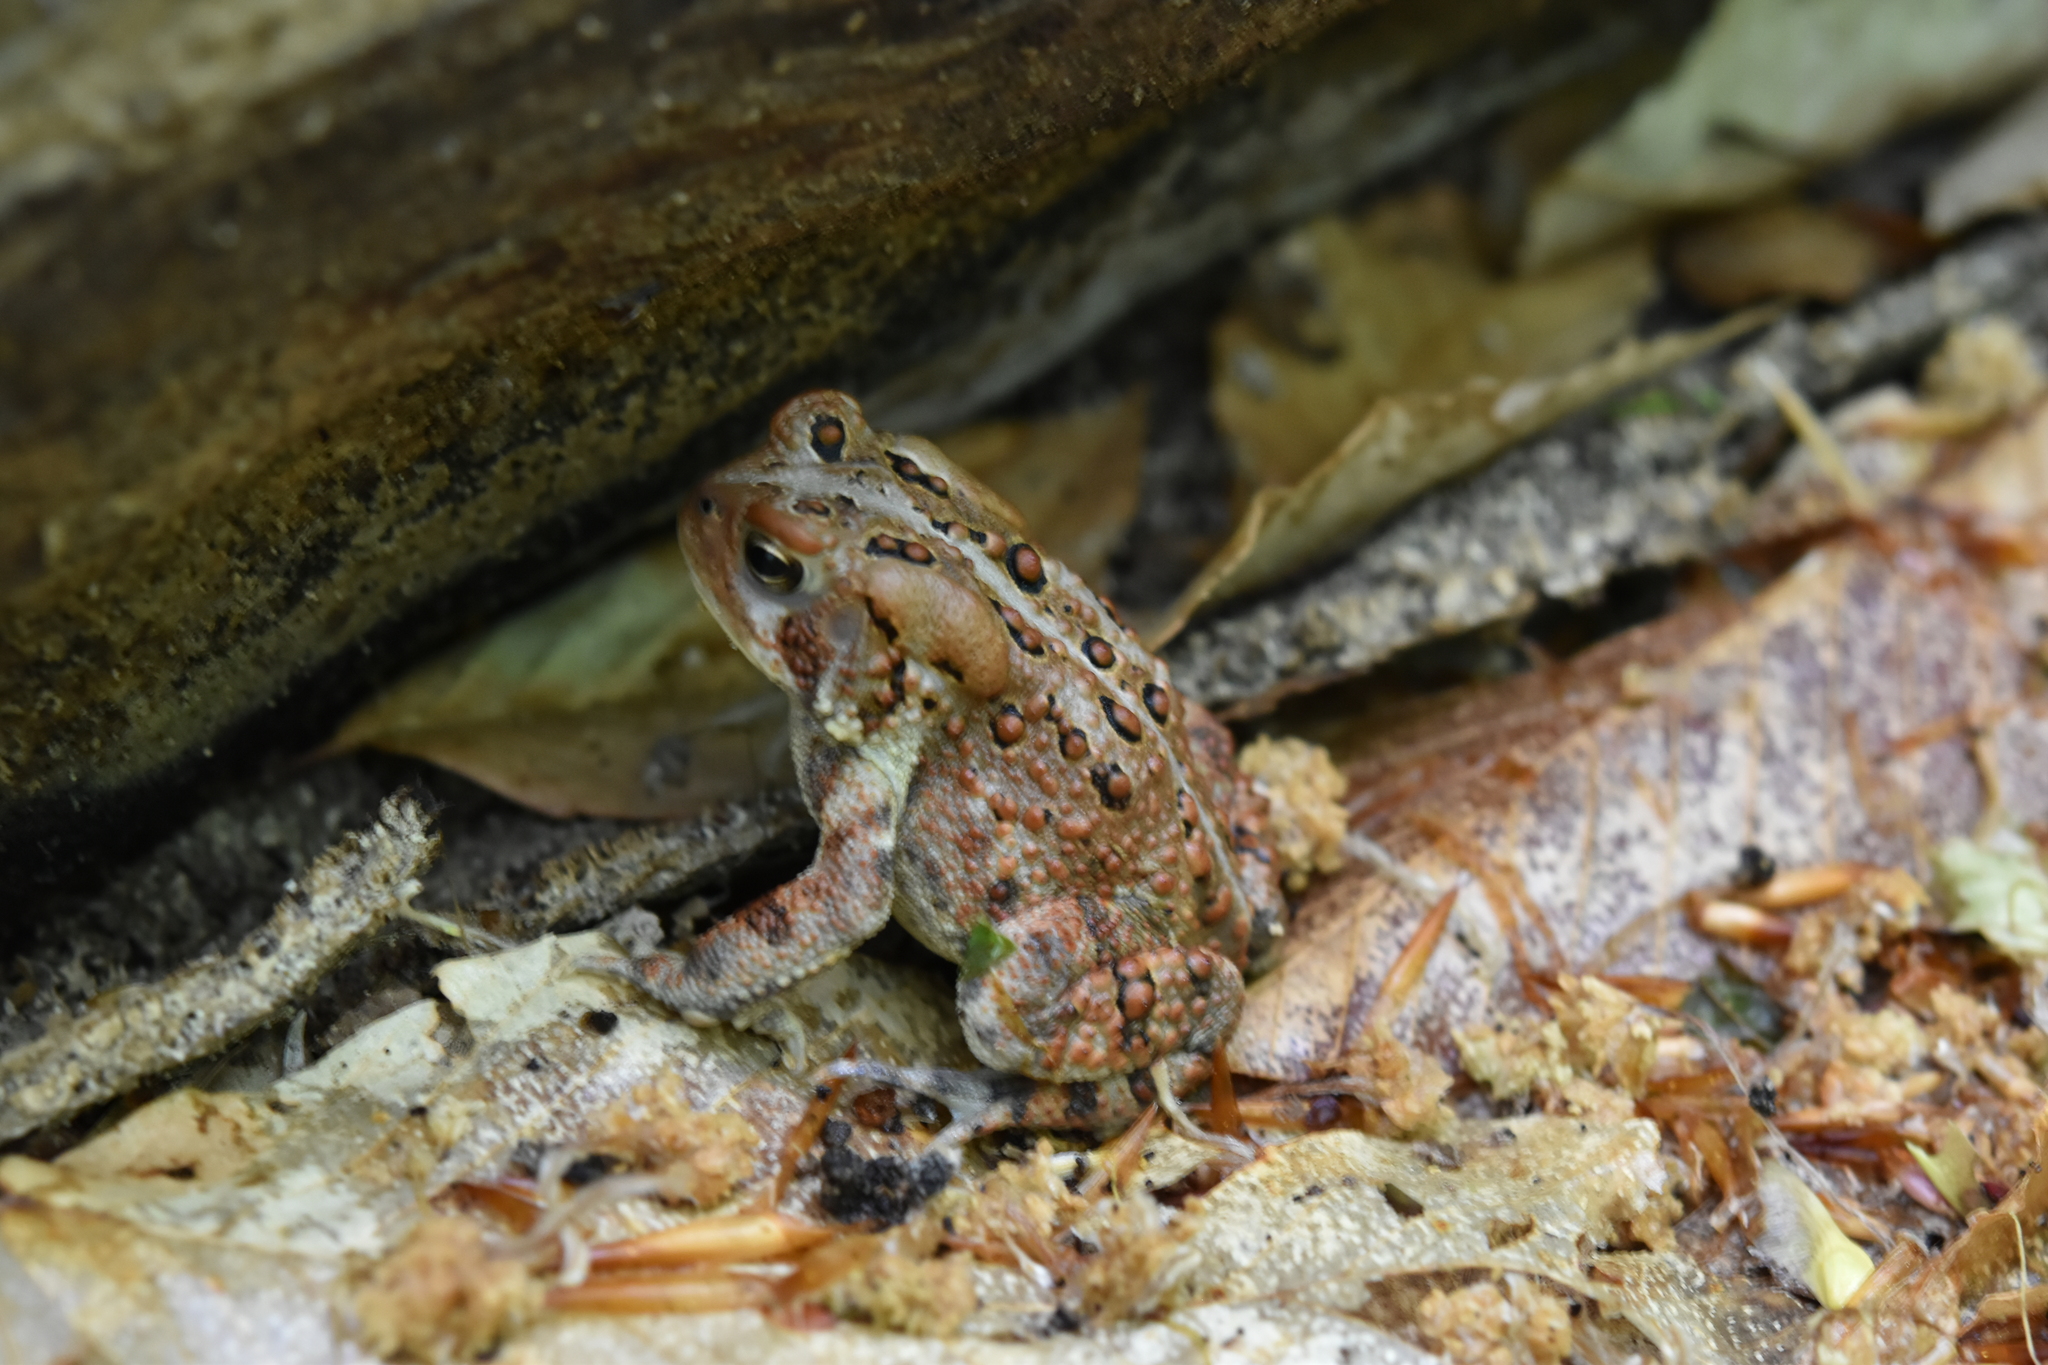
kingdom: Animalia
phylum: Chordata
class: Amphibia
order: Anura
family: Bufonidae
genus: Anaxyrus
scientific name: Anaxyrus americanus
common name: American toad
